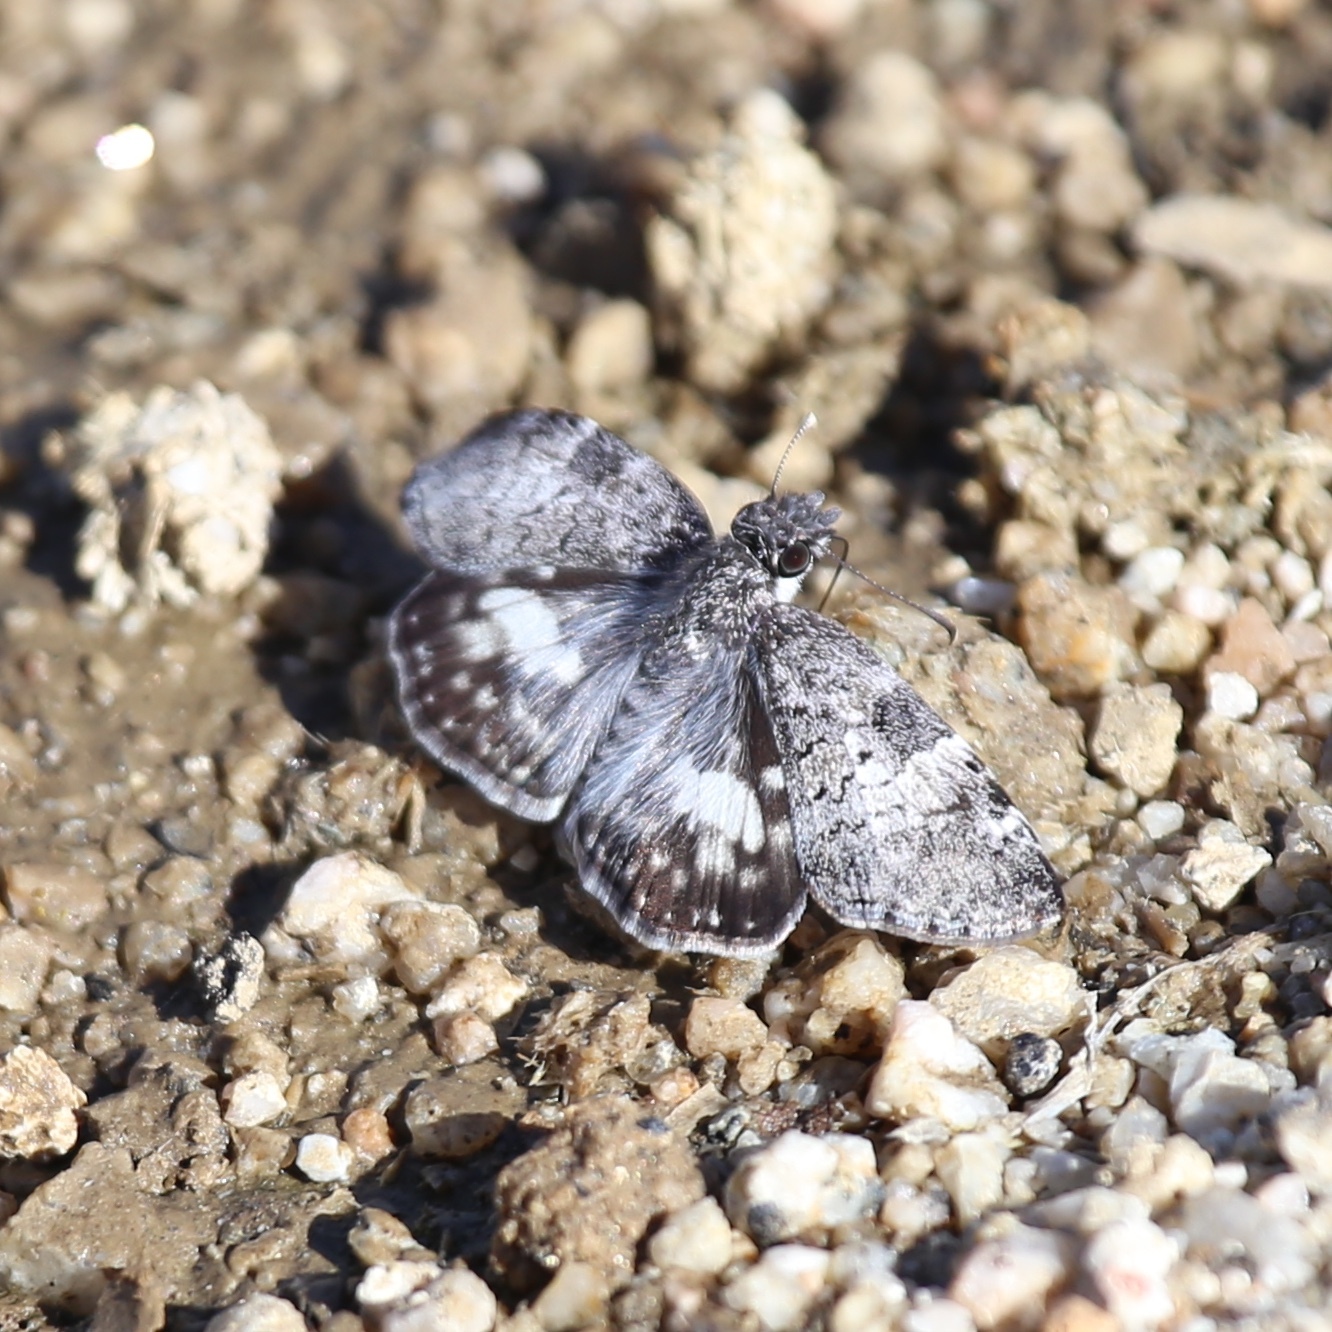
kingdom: Animalia
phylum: Arthropoda
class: Insecta
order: Lepidoptera
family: Hesperiidae
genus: Chiothion
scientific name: Chiothion georgina
